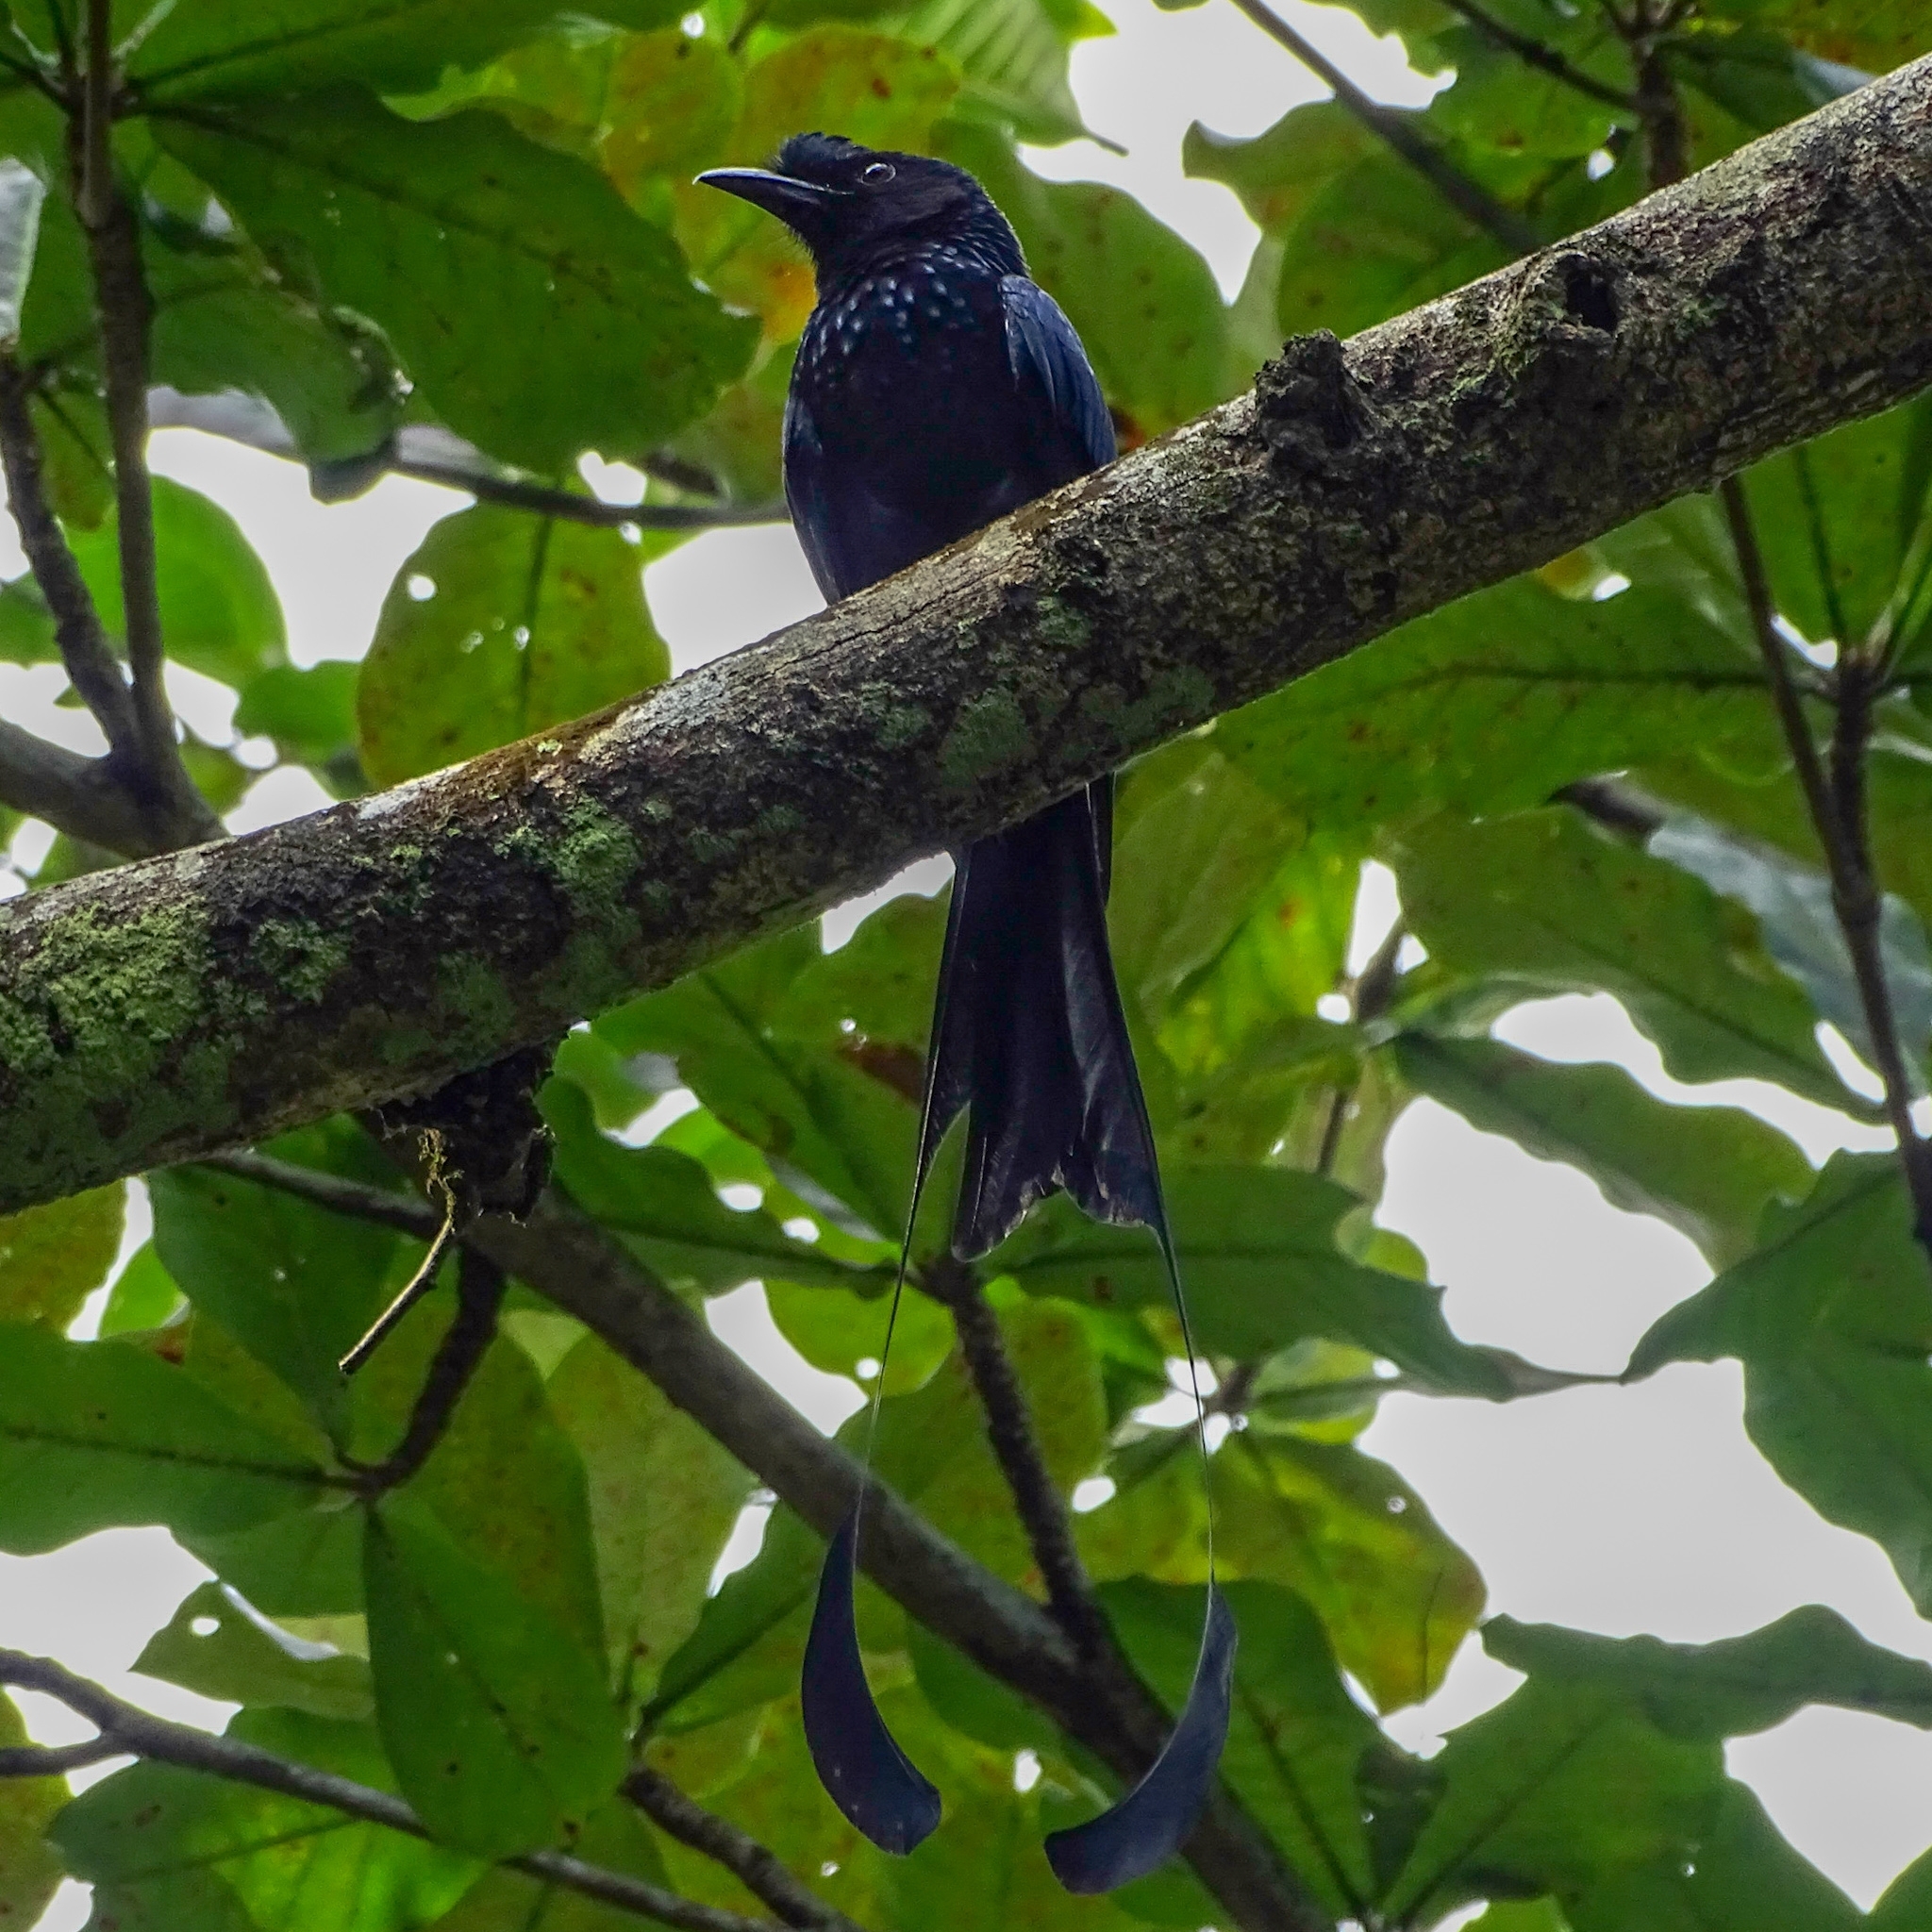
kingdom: Animalia
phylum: Chordata
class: Aves
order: Passeriformes
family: Dicruridae
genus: Dicrurus
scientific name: Dicrurus paradiseus
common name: Greater racket-tailed drongo
